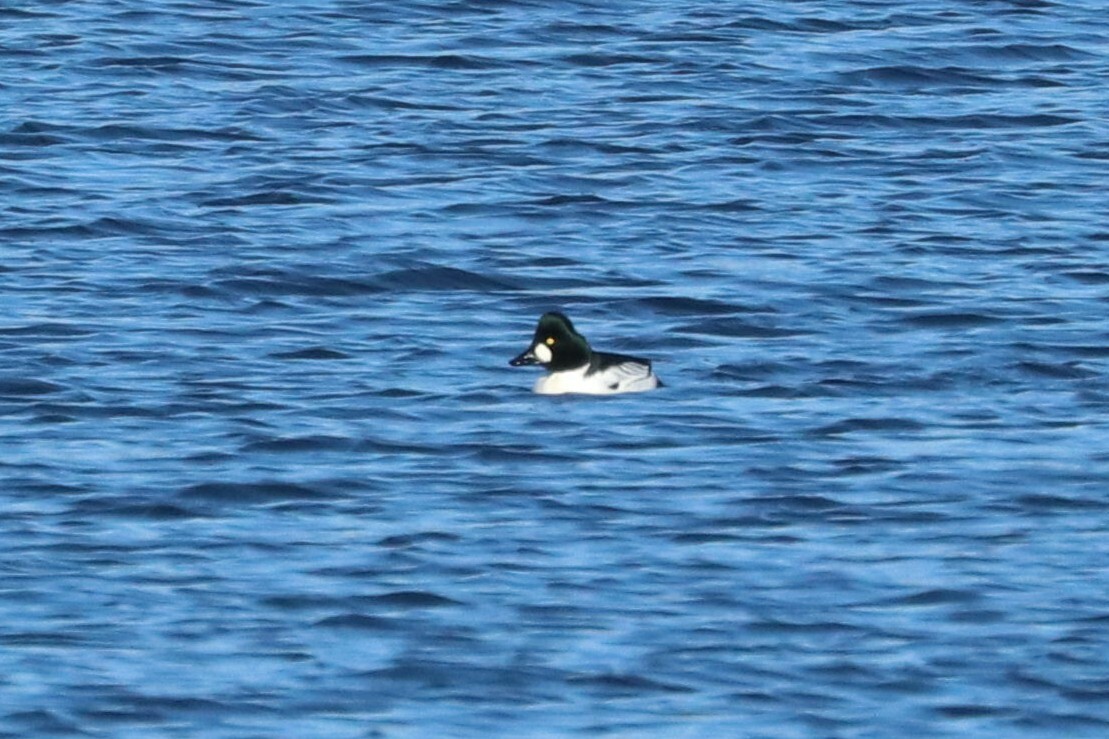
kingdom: Animalia
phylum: Chordata
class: Aves
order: Anseriformes
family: Anatidae
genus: Bucephala
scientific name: Bucephala clangula
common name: Common goldeneye
